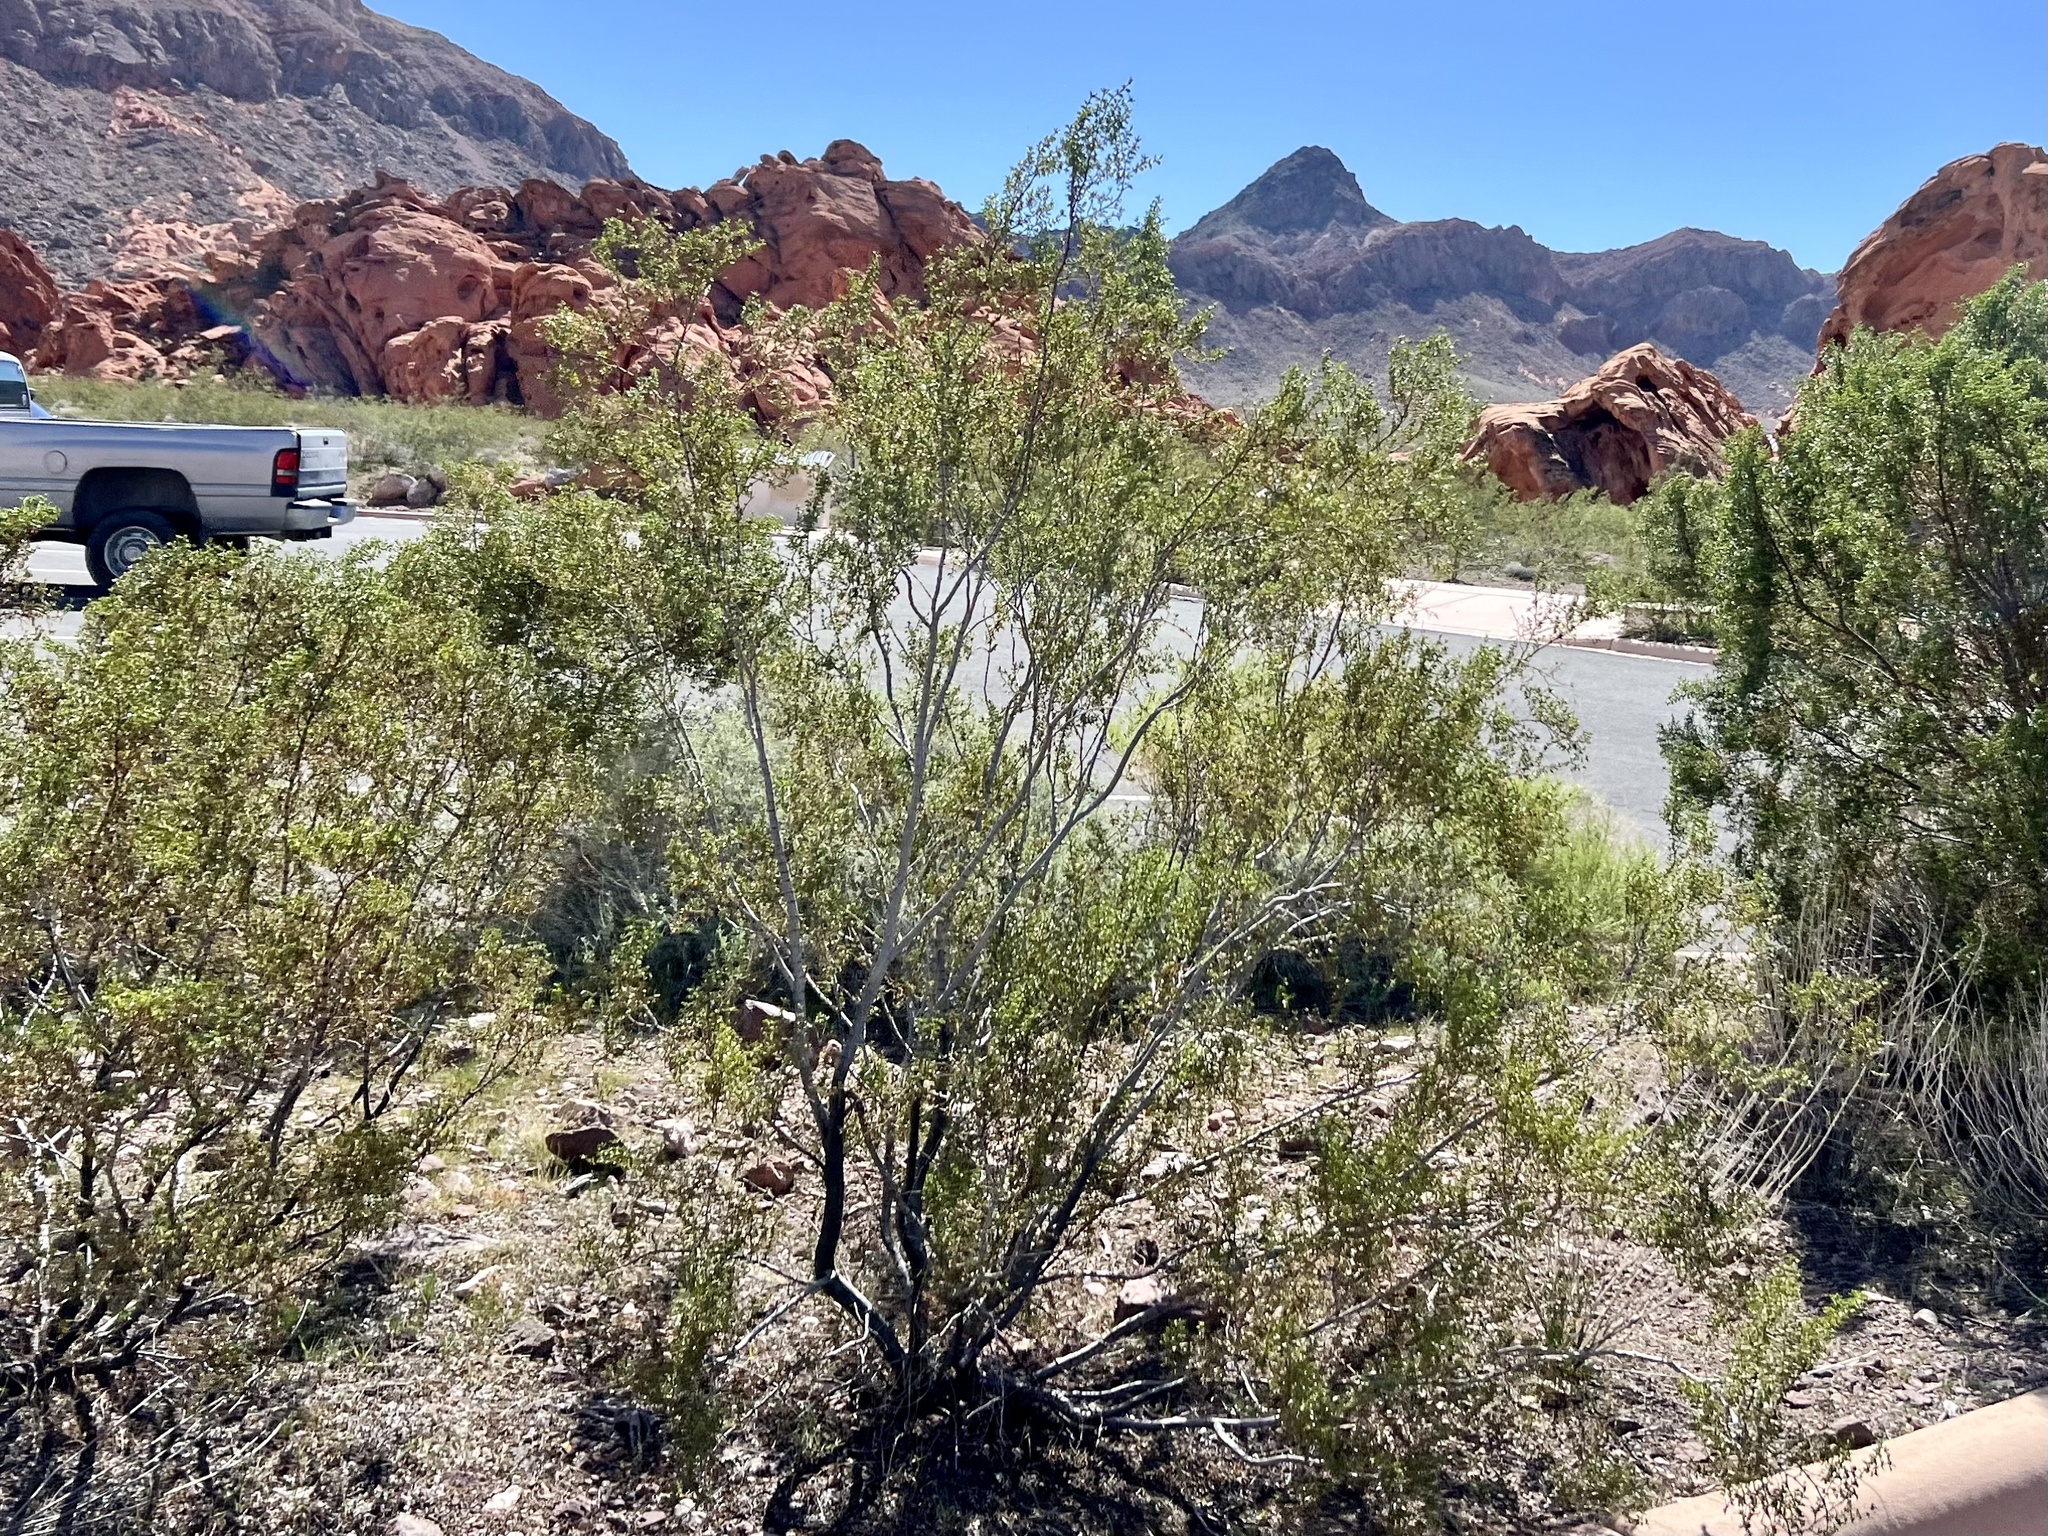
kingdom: Plantae
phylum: Tracheophyta
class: Magnoliopsida
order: Zygophyllales
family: Zygophyllaceae
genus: Larrea
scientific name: Larrea tridentata
